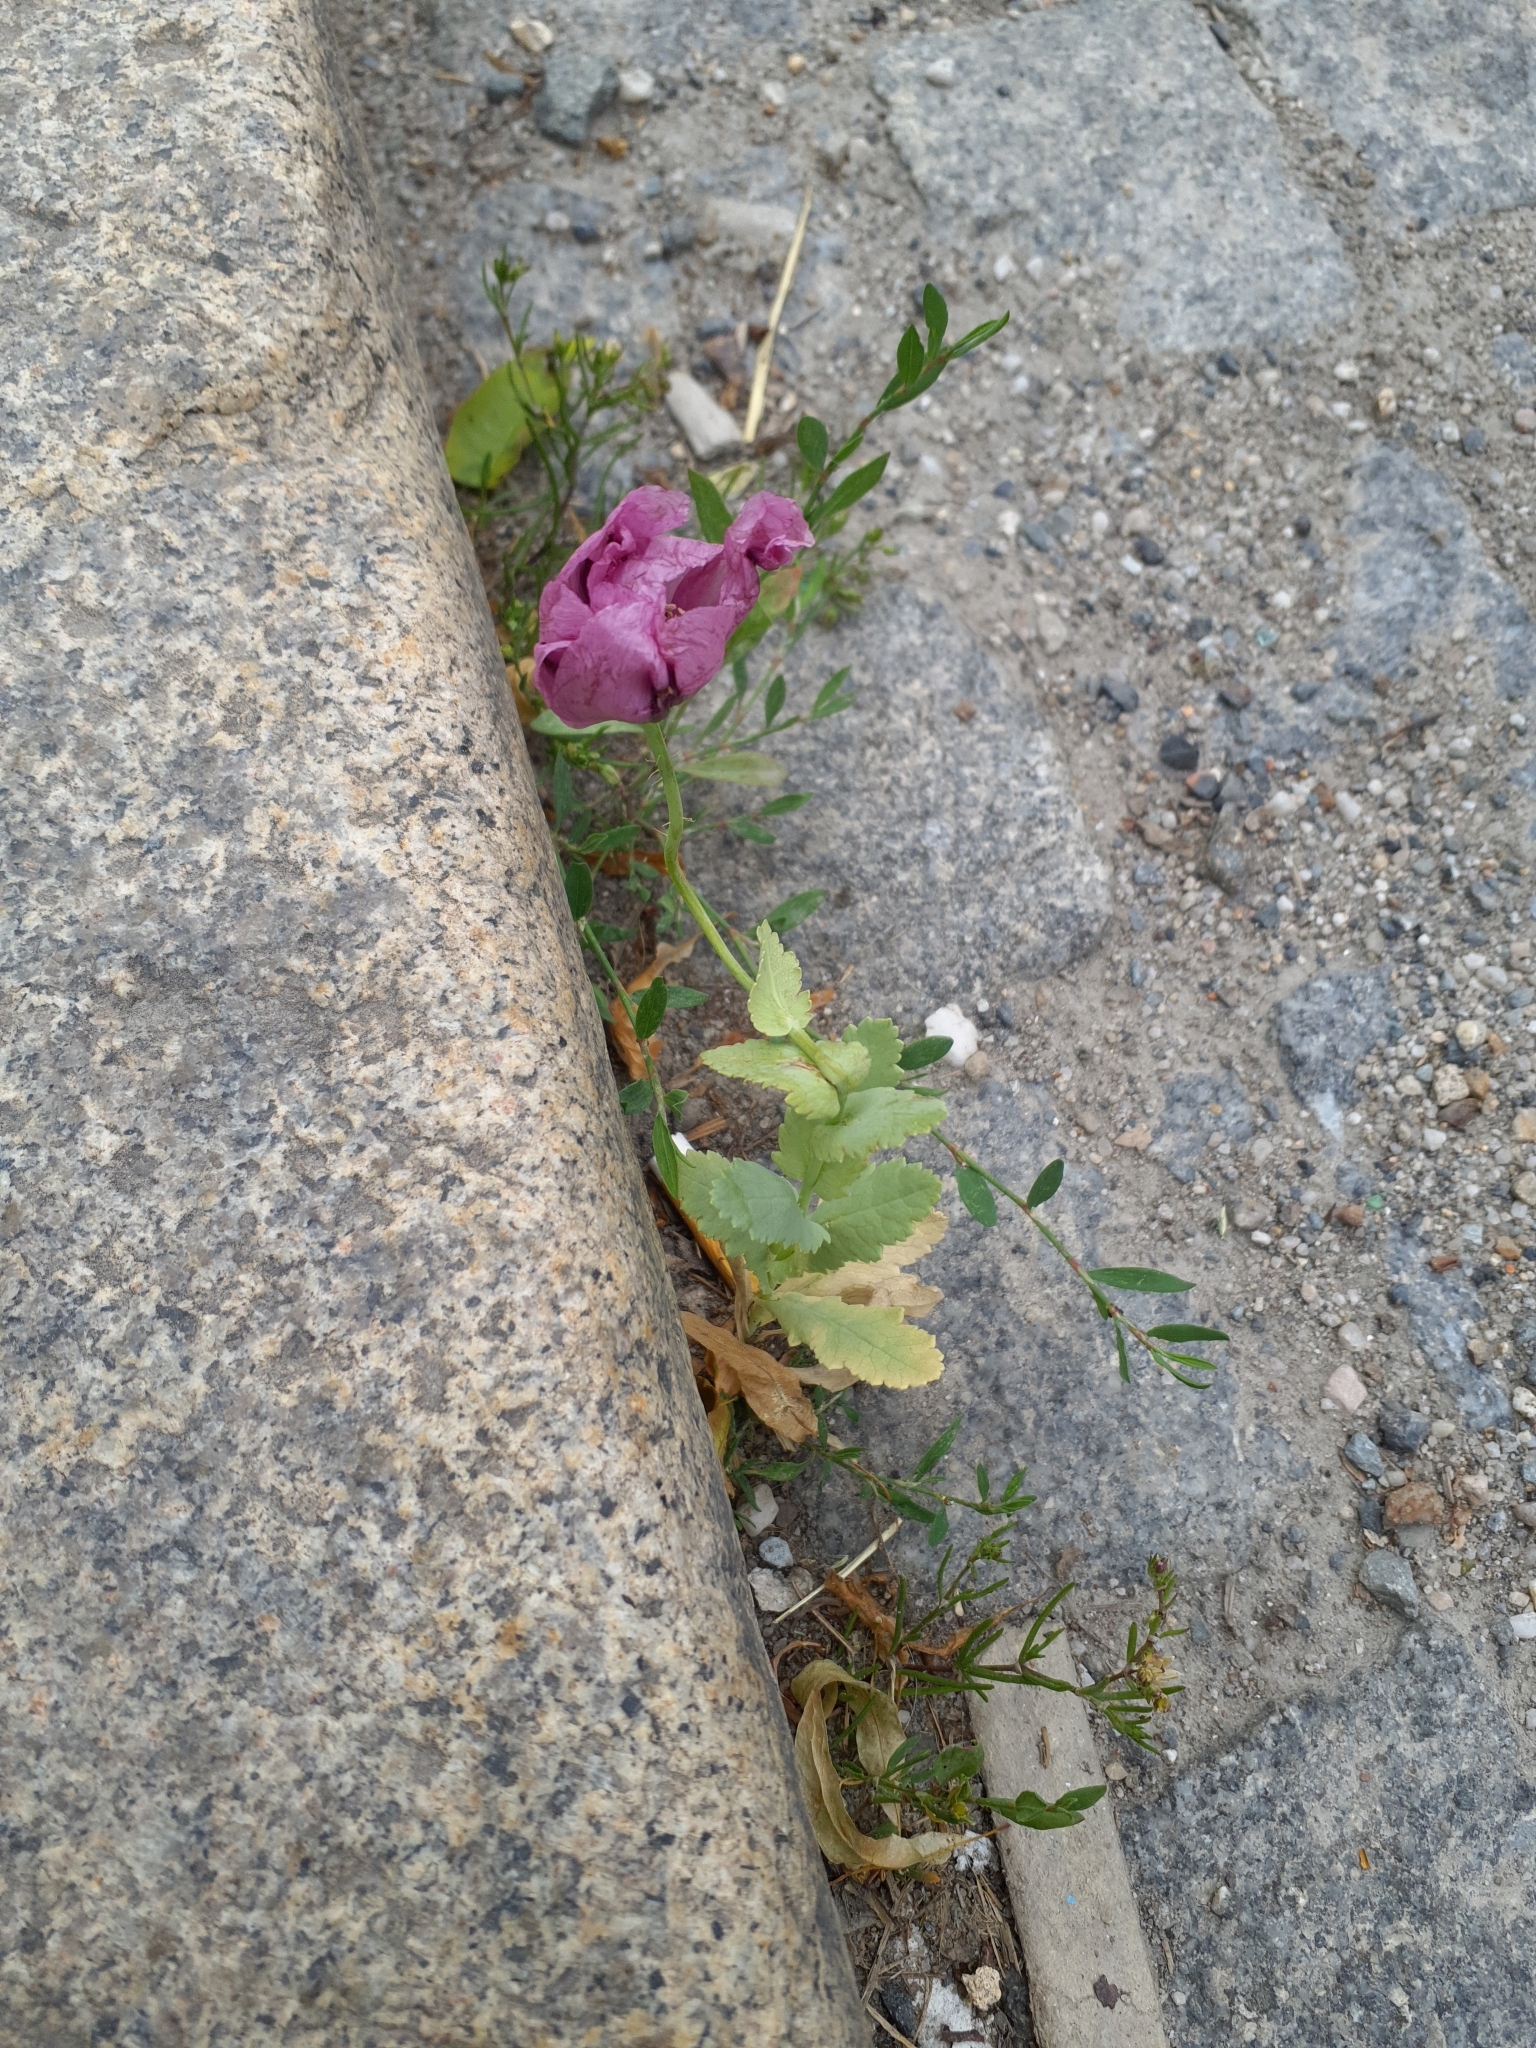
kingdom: Plantae
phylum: Tracheophyta
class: Magnoliopsida
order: Ranunculales
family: Papaveraceae
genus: Papaver
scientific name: Papaver somniferum
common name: Opium poppy
